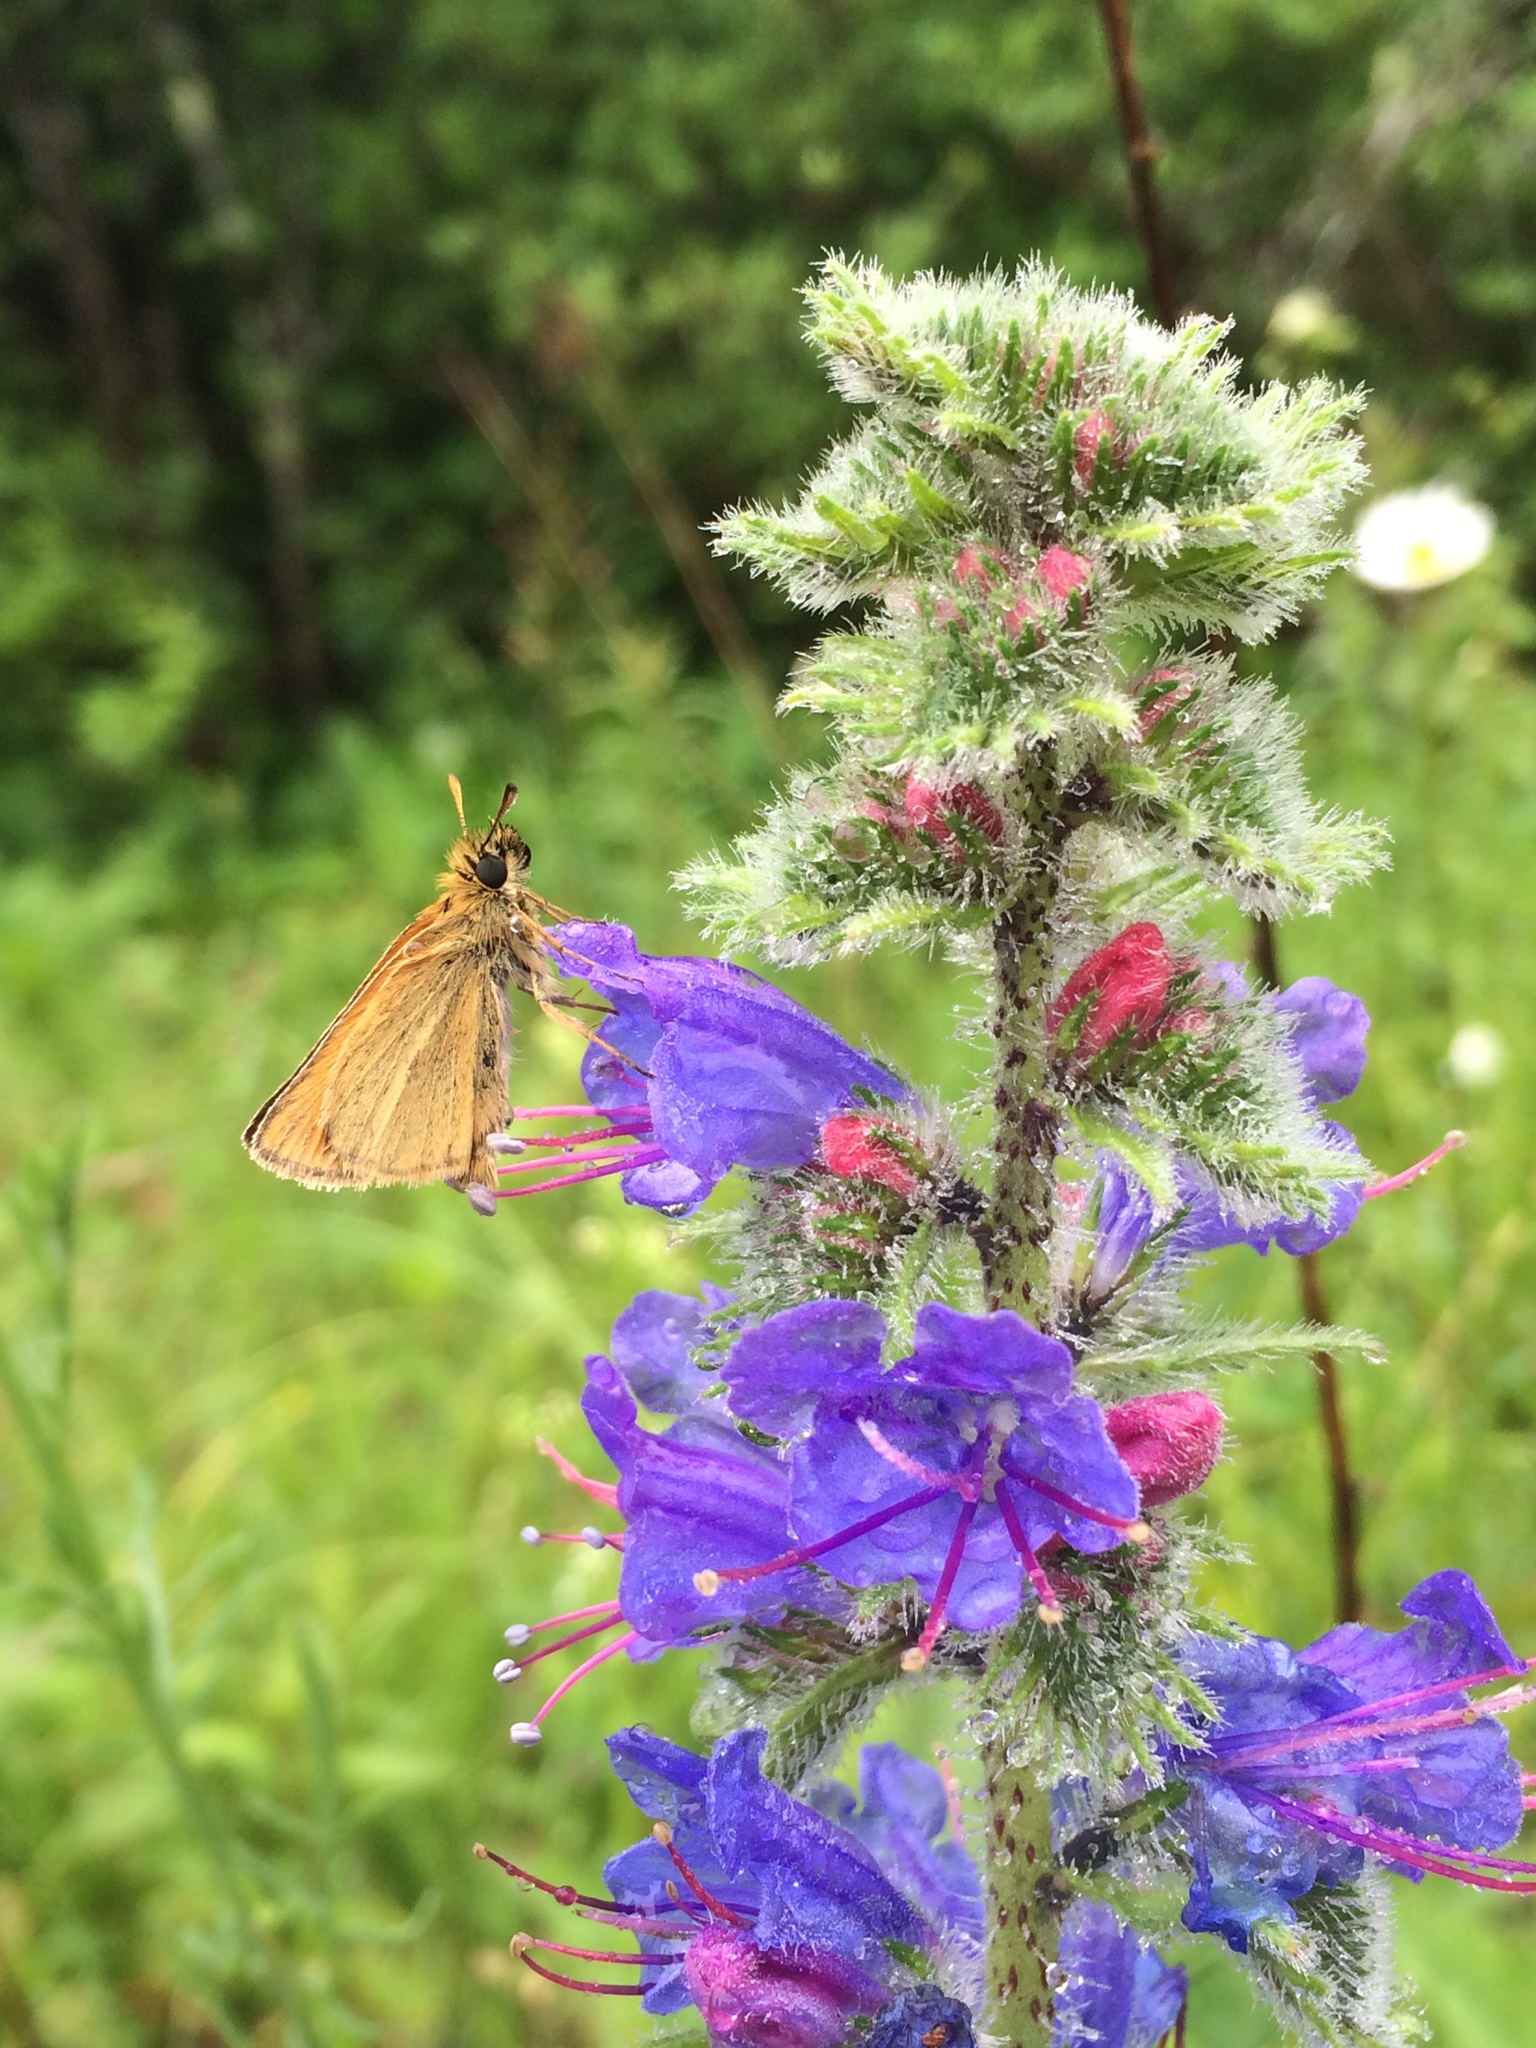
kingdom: Plantae
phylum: Tracheophyta
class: Magnoliopsida
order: Boraginales
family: Boraginaceae
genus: Echium
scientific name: Echium vulgare
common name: Common viper's bugloss
